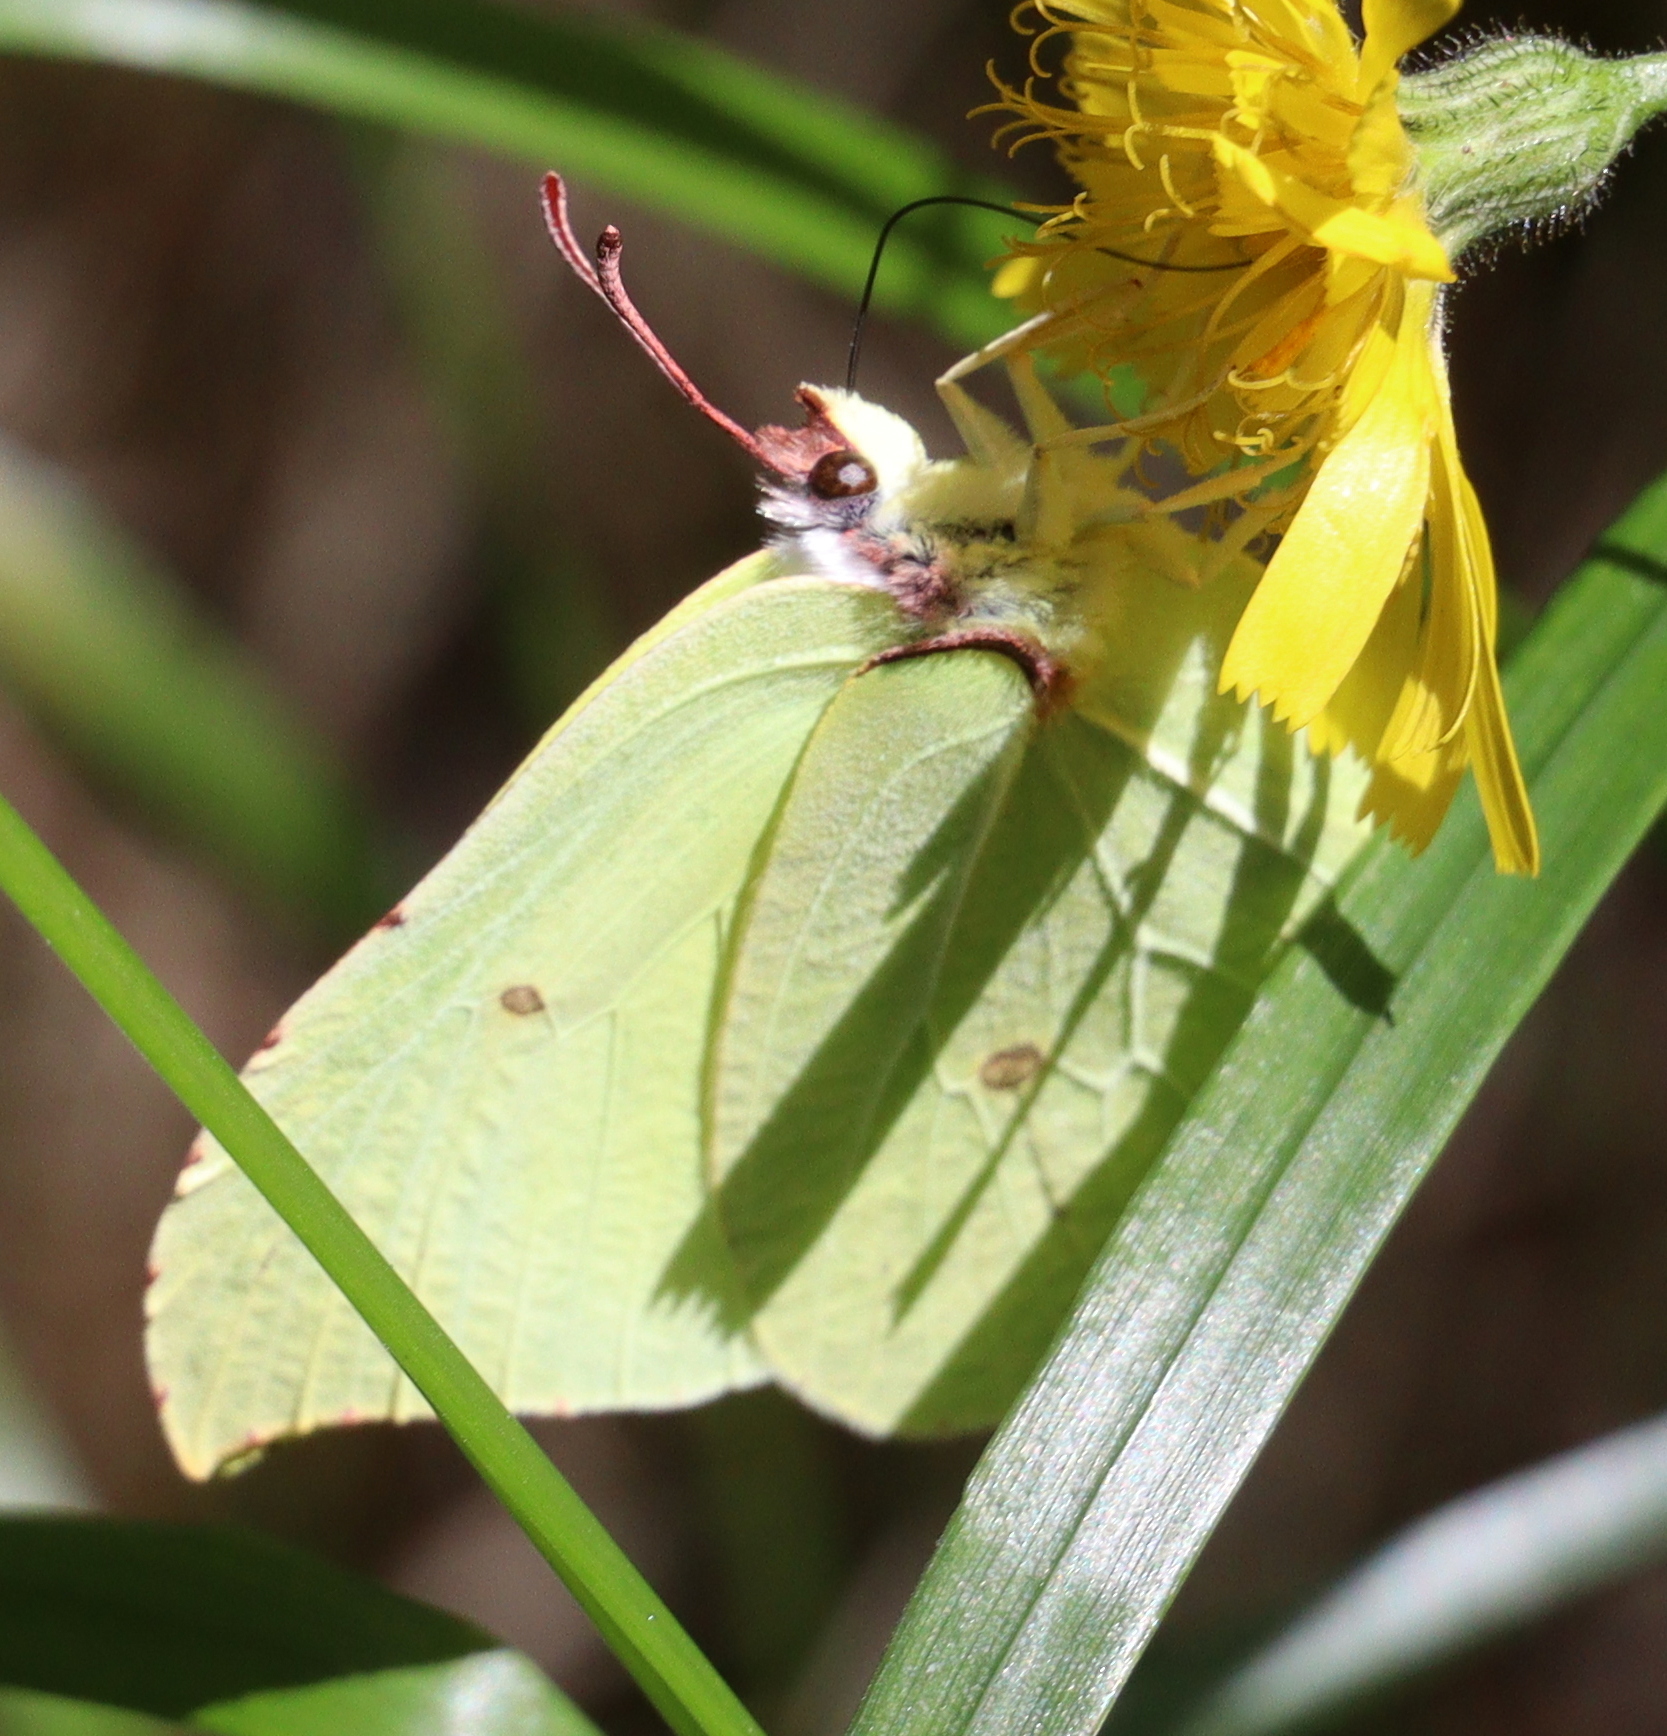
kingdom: Animalia
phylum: Arthropoda
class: Insecta
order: Lepidoptera
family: Pieridae
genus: Gonepteryx
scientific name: Gonepteryx rhamni
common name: Brimstone
